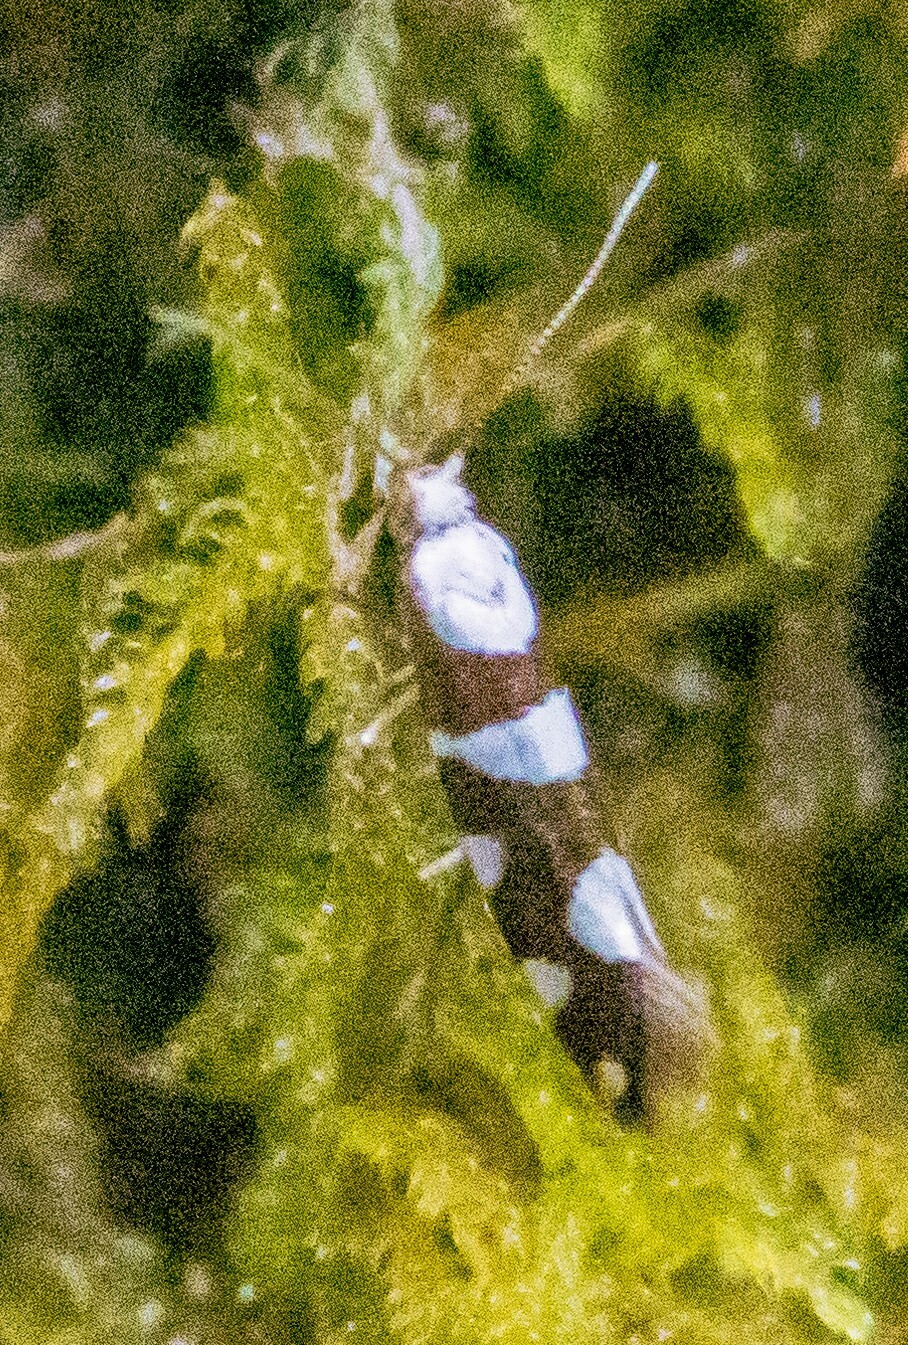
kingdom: Animalia
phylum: Arthropoda
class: Insecta
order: Lepidoptera
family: Argyresthiidae
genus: Argyresthia
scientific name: Argyresthia brockeella
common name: Gold-ribbon argent
